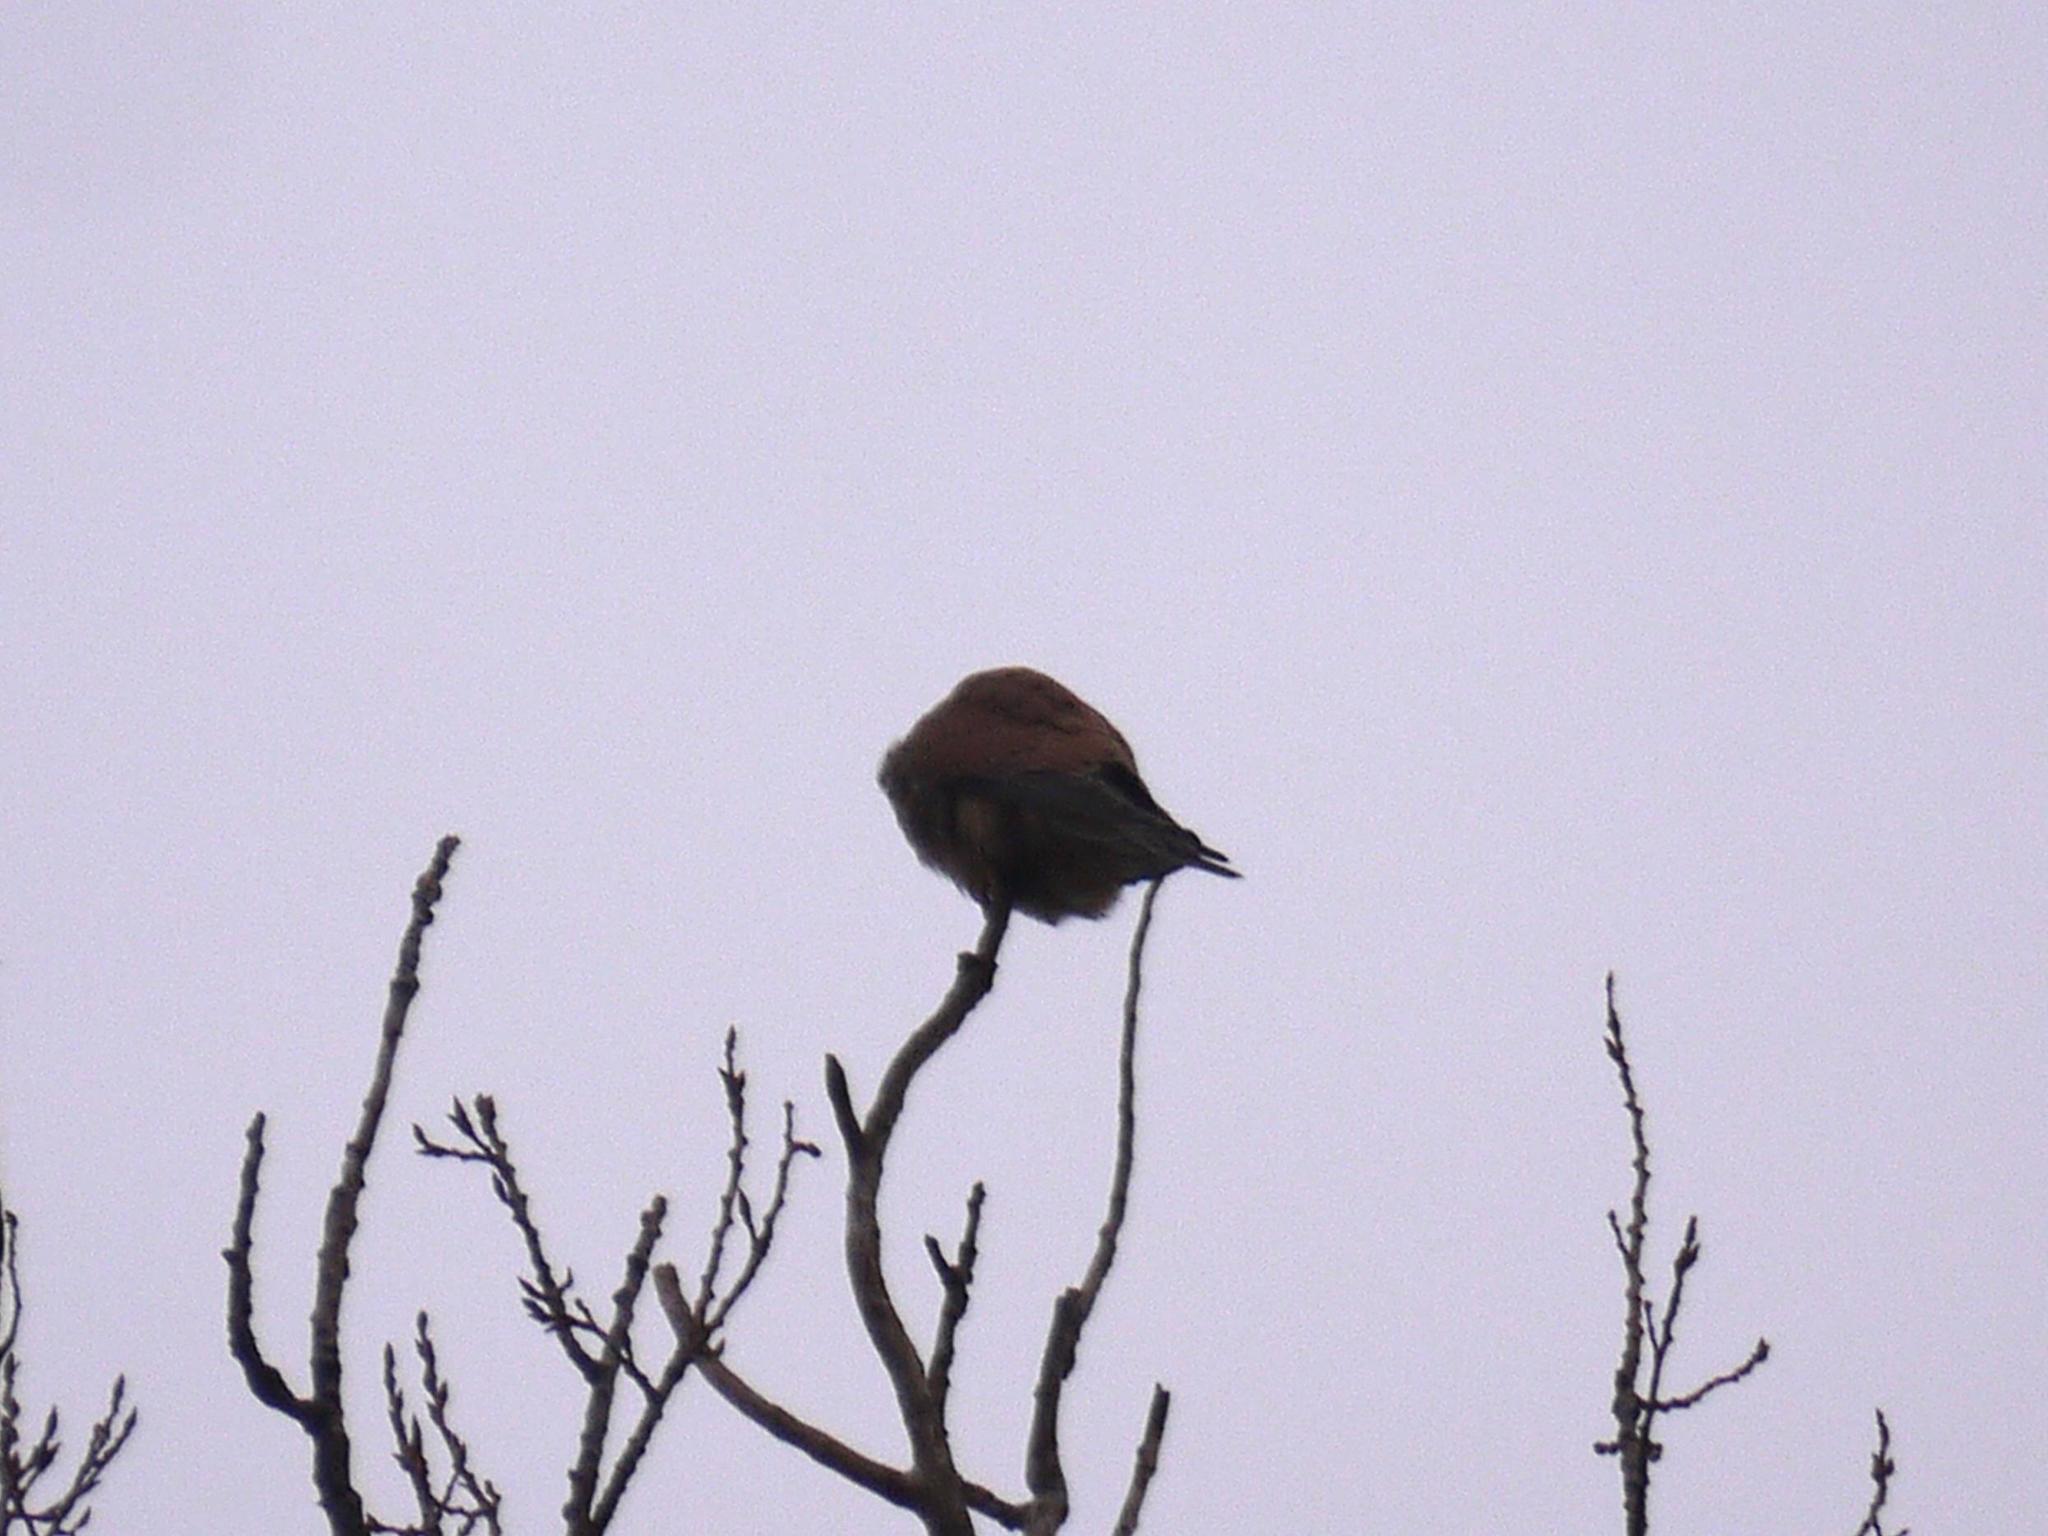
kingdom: Animalia
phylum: Chordata
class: Aves
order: Falconiformes
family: Falconidae
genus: Falco
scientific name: Falco tinnunculus
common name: Common kestrel
